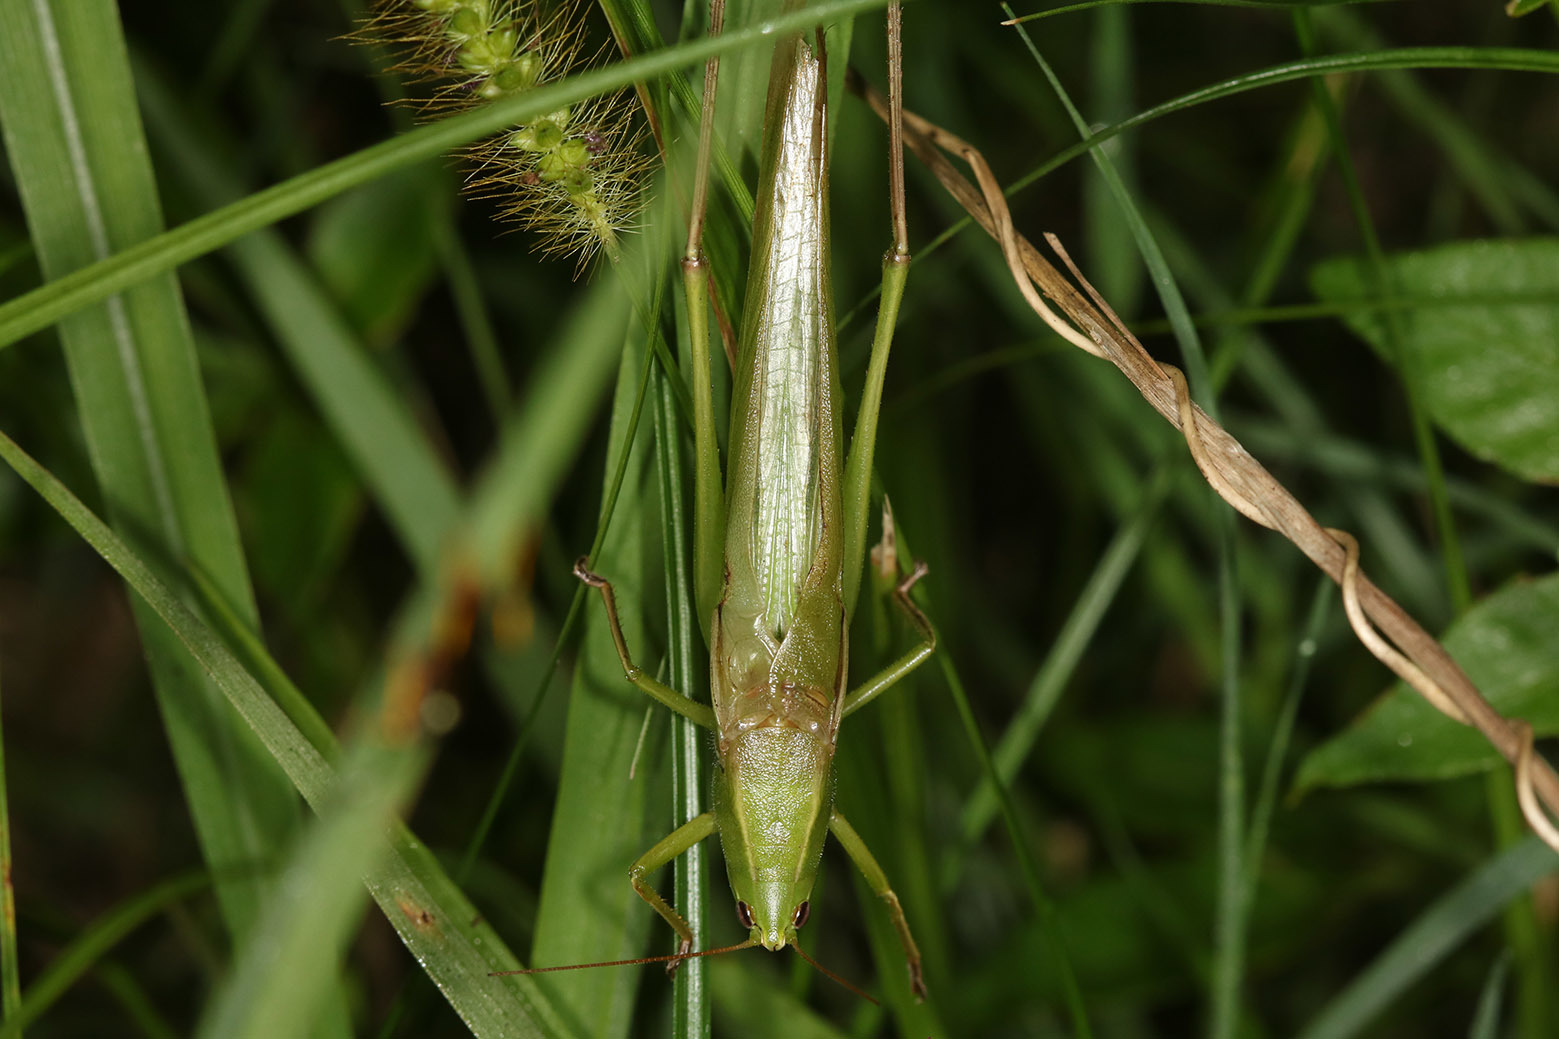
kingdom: Animalia
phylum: Arthropoda
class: Insecta
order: Orthoptera
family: Tettigoniidae
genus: Neoconocephalus
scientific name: Neoconocephalus viridis
